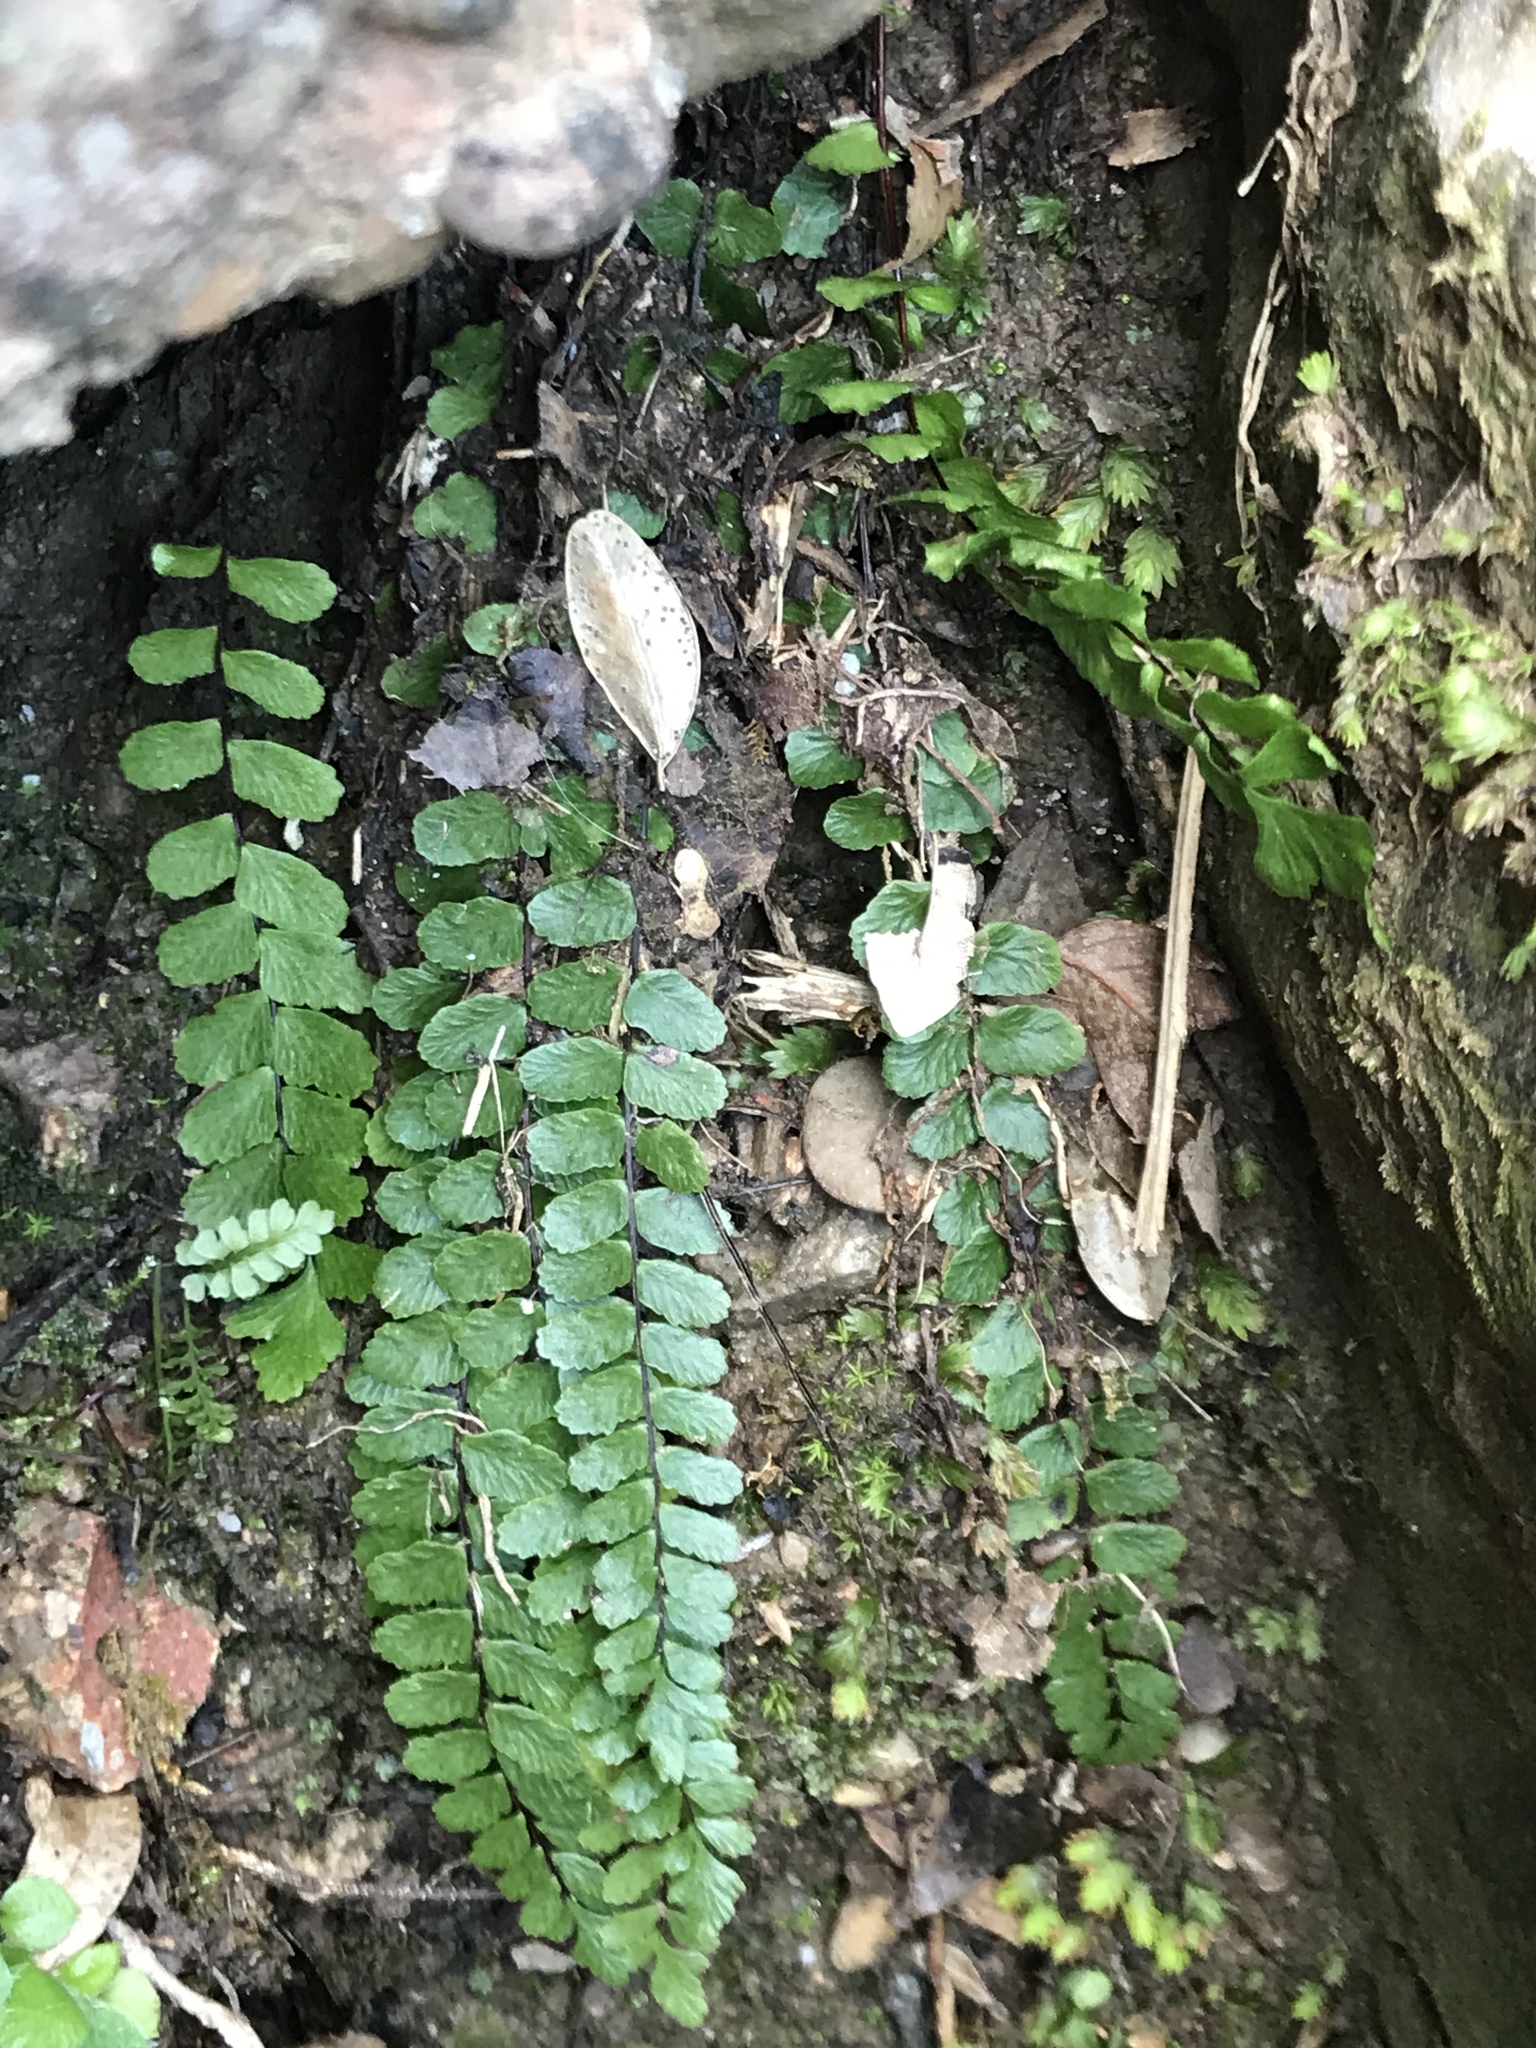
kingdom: Plantae
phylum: Tracheophyta
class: Polypodiopsida
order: Polypodiales
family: Aspleniaceae
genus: Asplenium
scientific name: Asplenium trichomanes
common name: Maidenhair spleenwort
